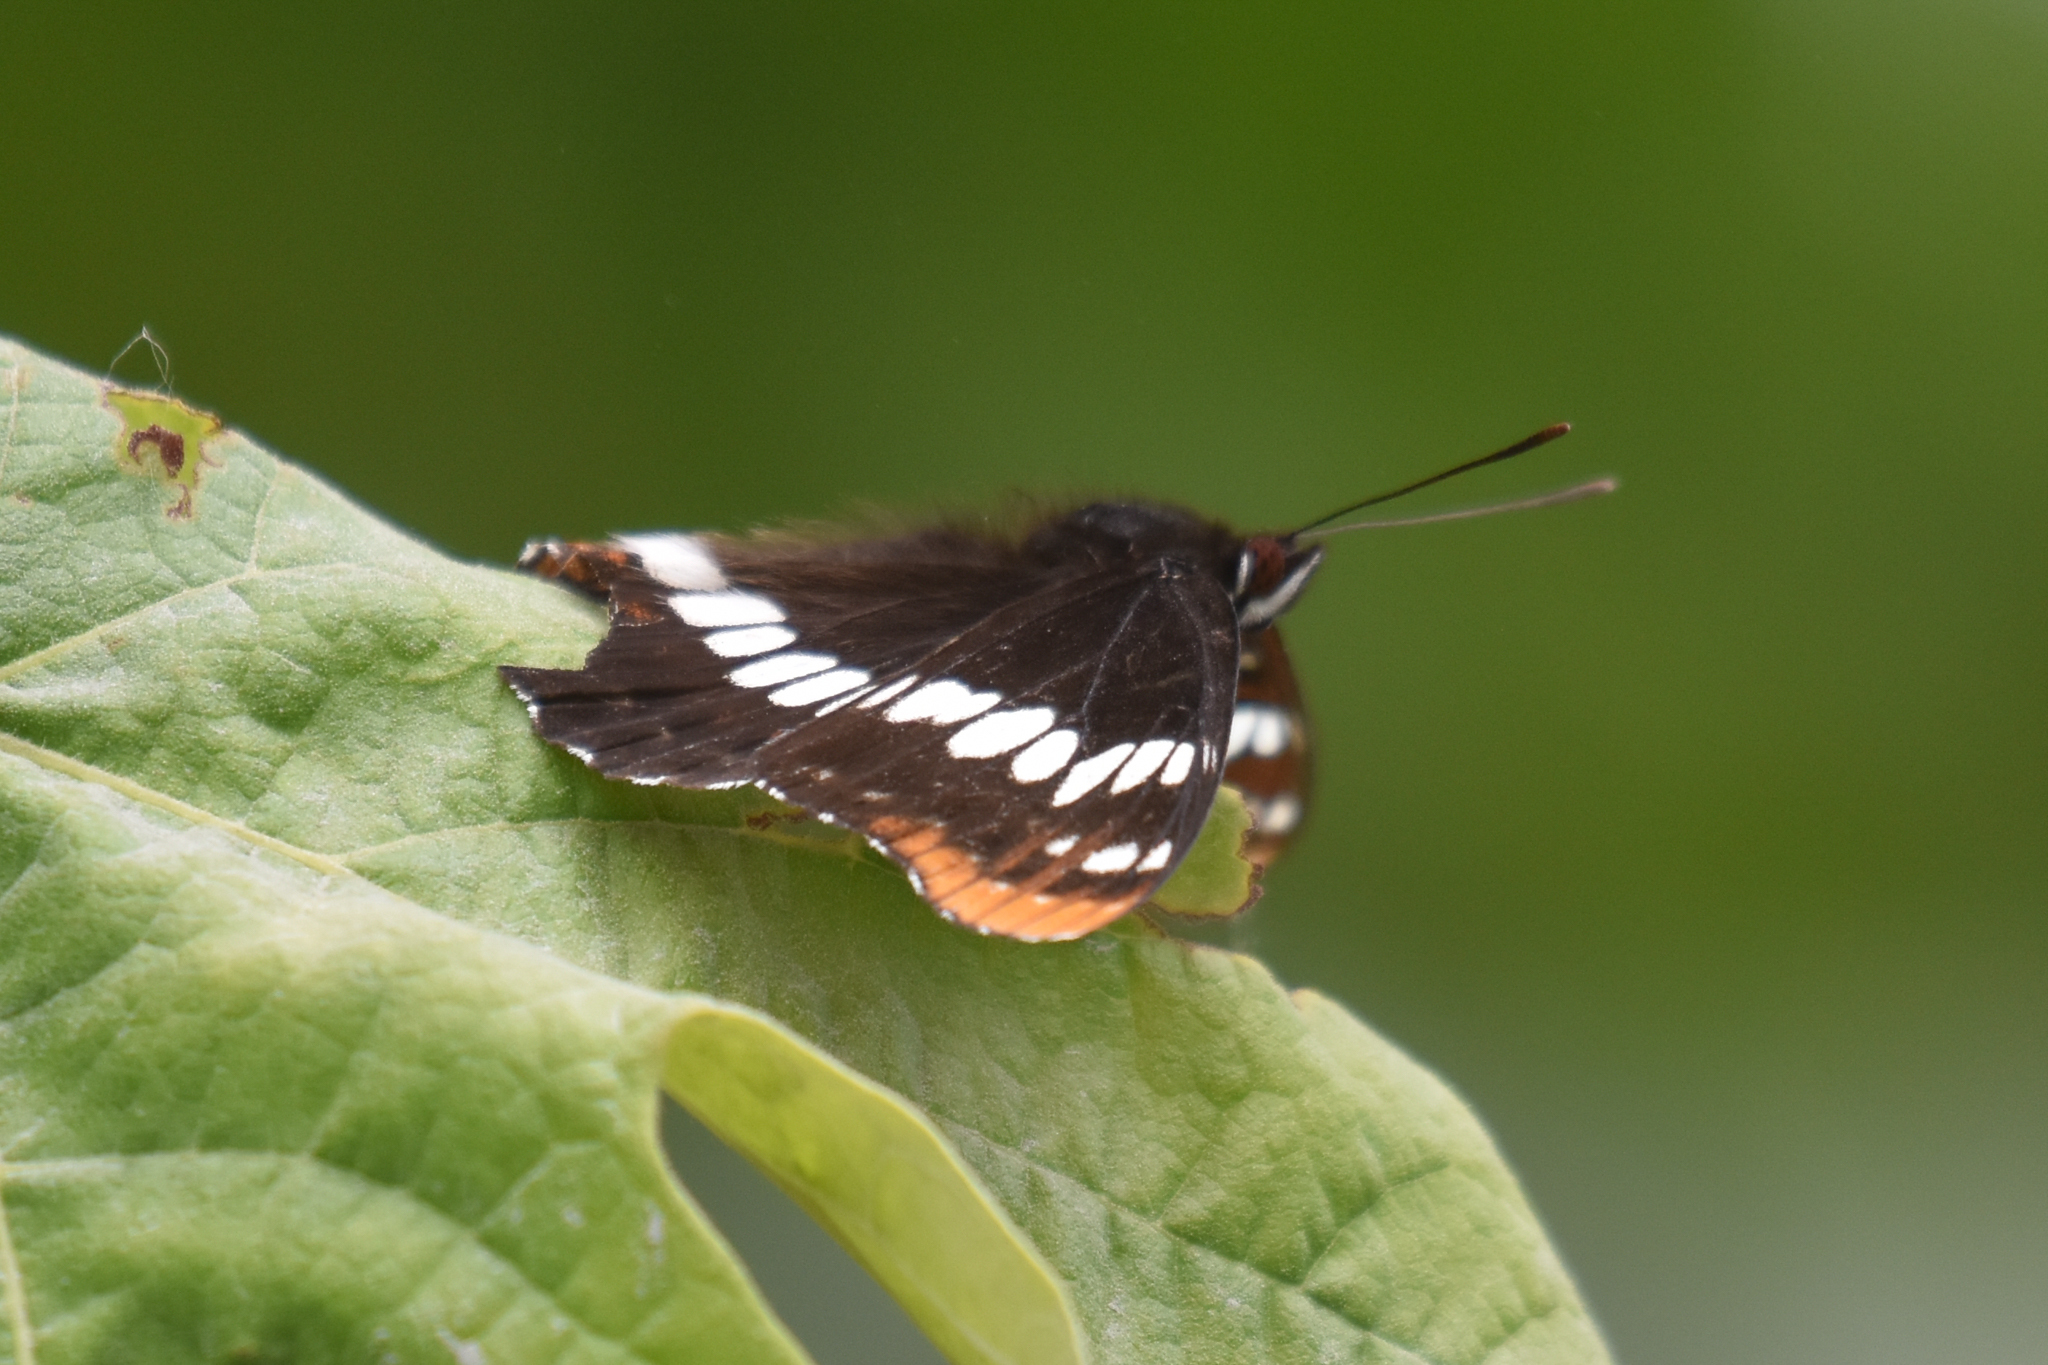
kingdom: Animalia
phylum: Arthropoda
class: Insecta
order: Lepidoptera
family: Nymphalidae
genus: Limenitis
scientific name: Limenitis lorquini
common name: Lorquin's admiral
